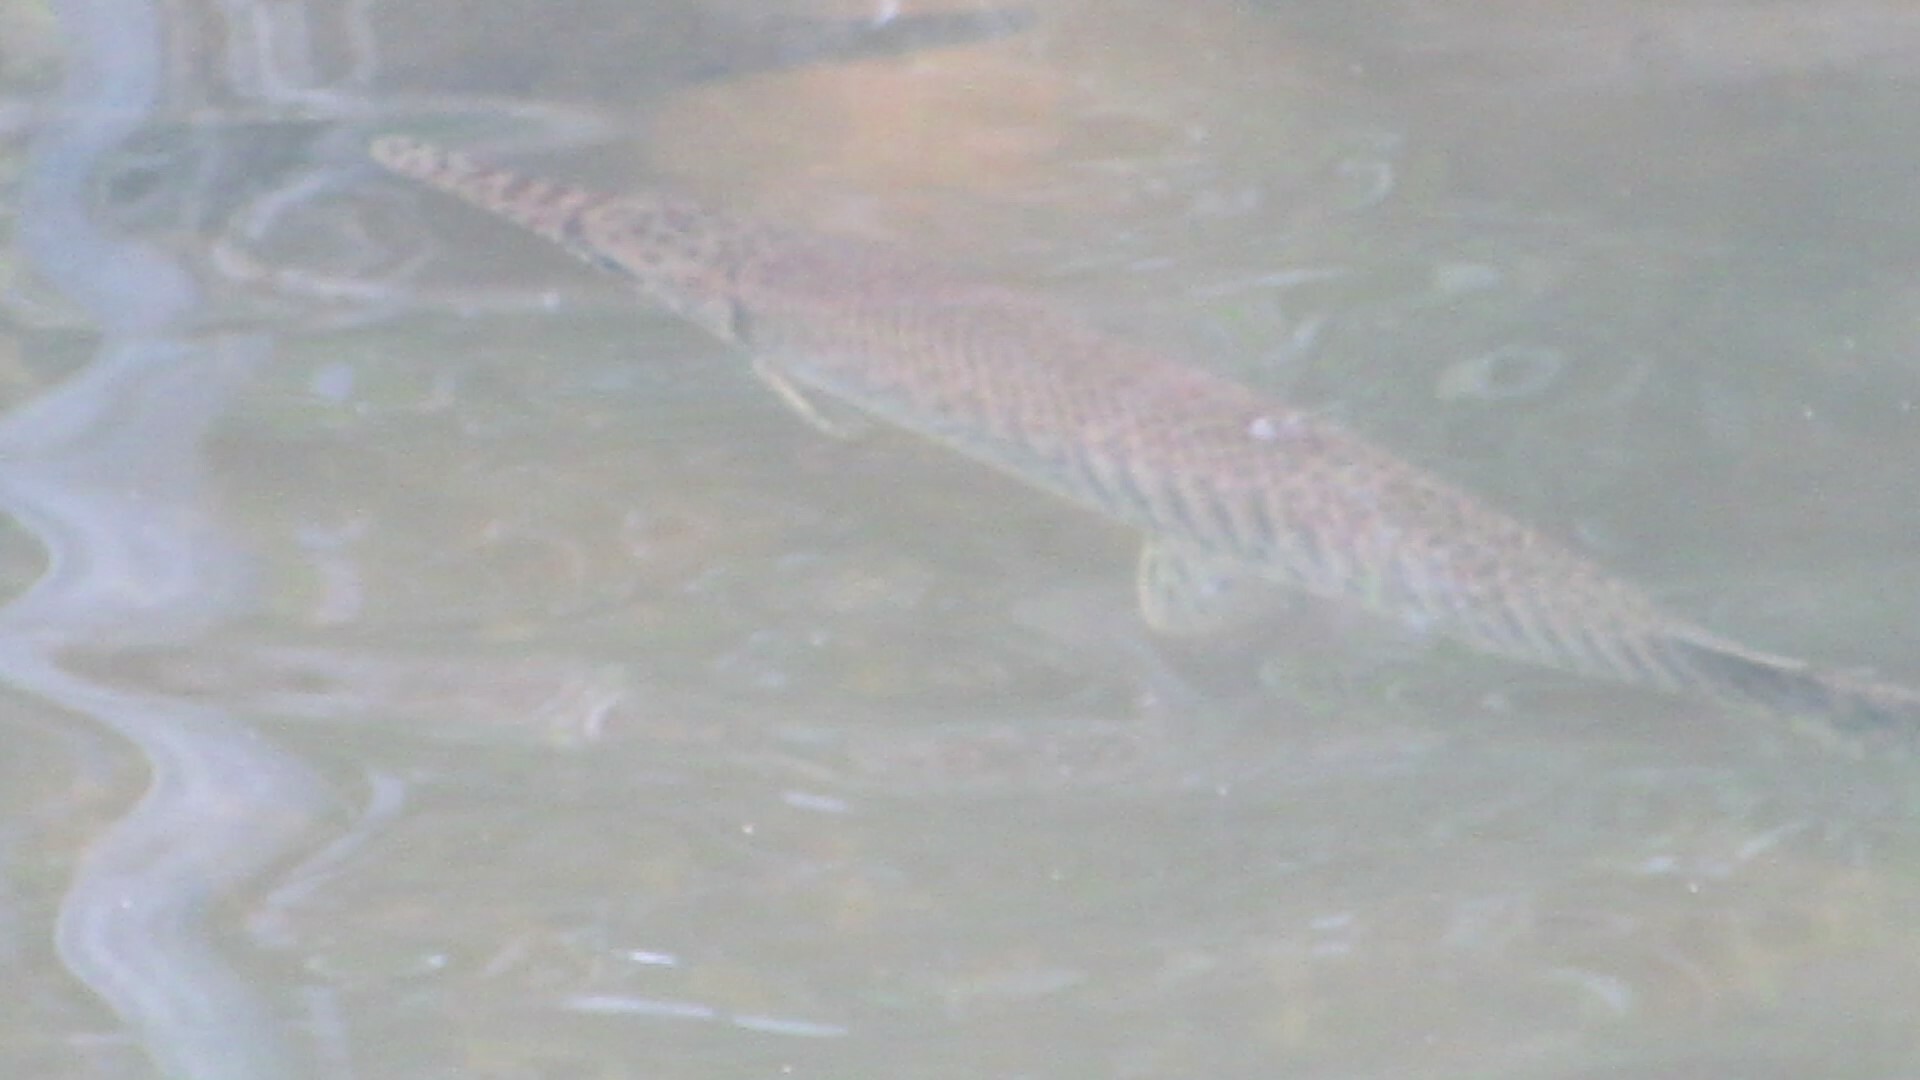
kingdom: Animalia
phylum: Chordata
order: Lepisosteiformes
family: Lepisosteidae
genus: Lepisosteus
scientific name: Lepisosteus platyrhincus
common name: Florida gar
